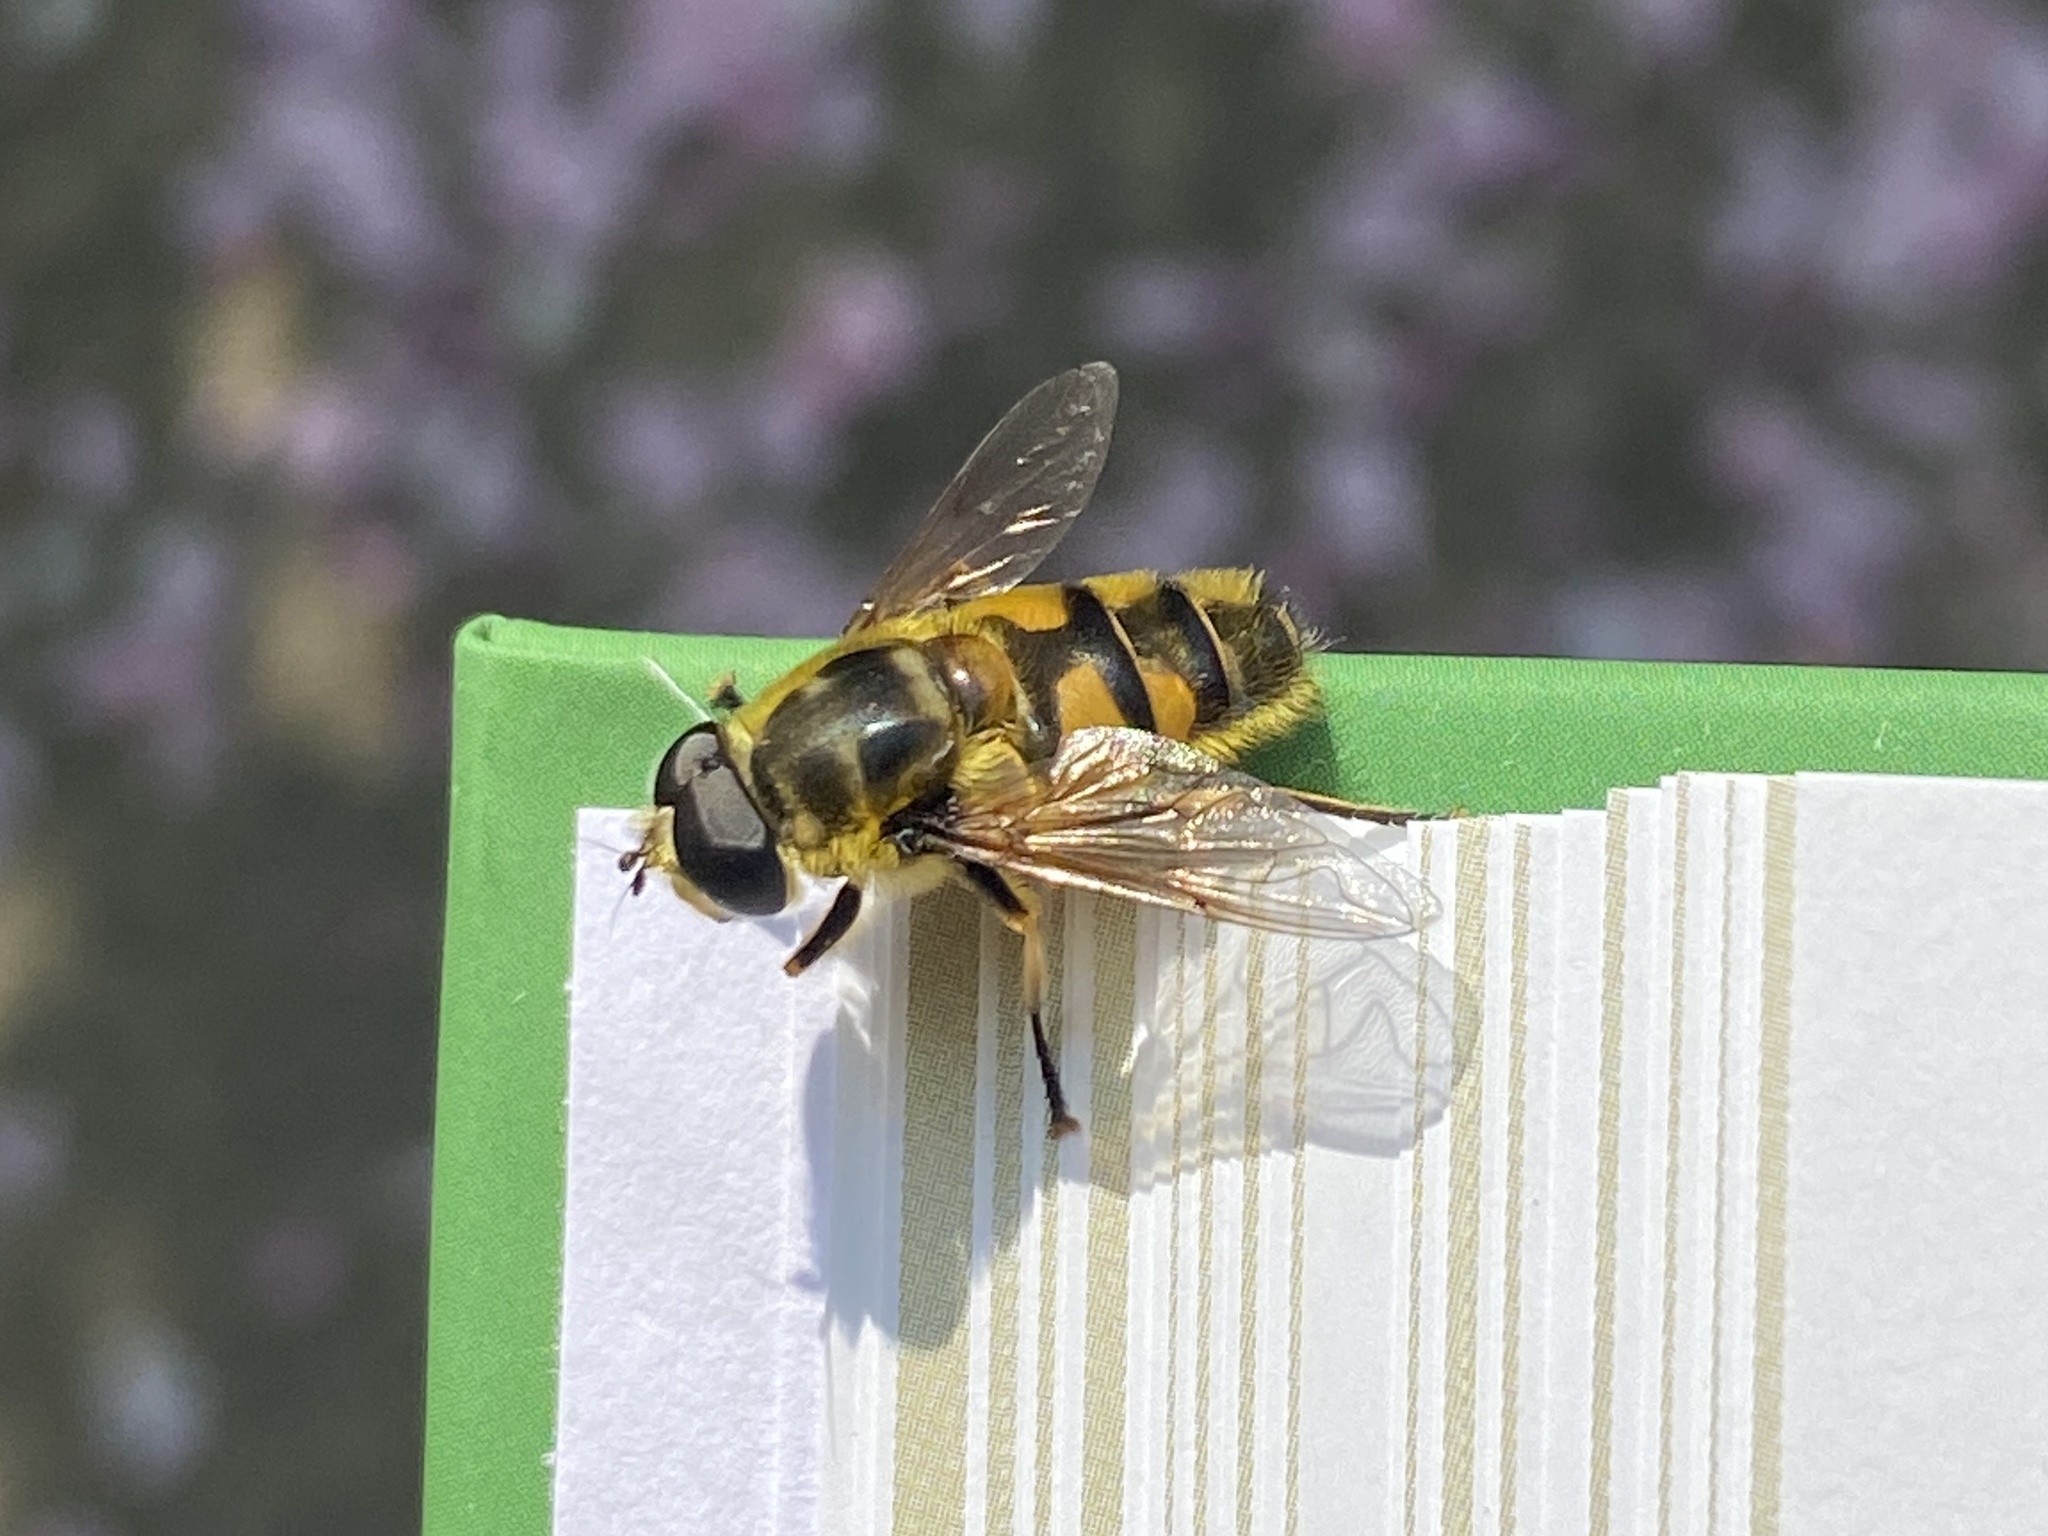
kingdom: Animalia
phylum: Arthropoda
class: Insecta
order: Diptera
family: Syrphidae
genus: Myathropa
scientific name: Myathropa florea
